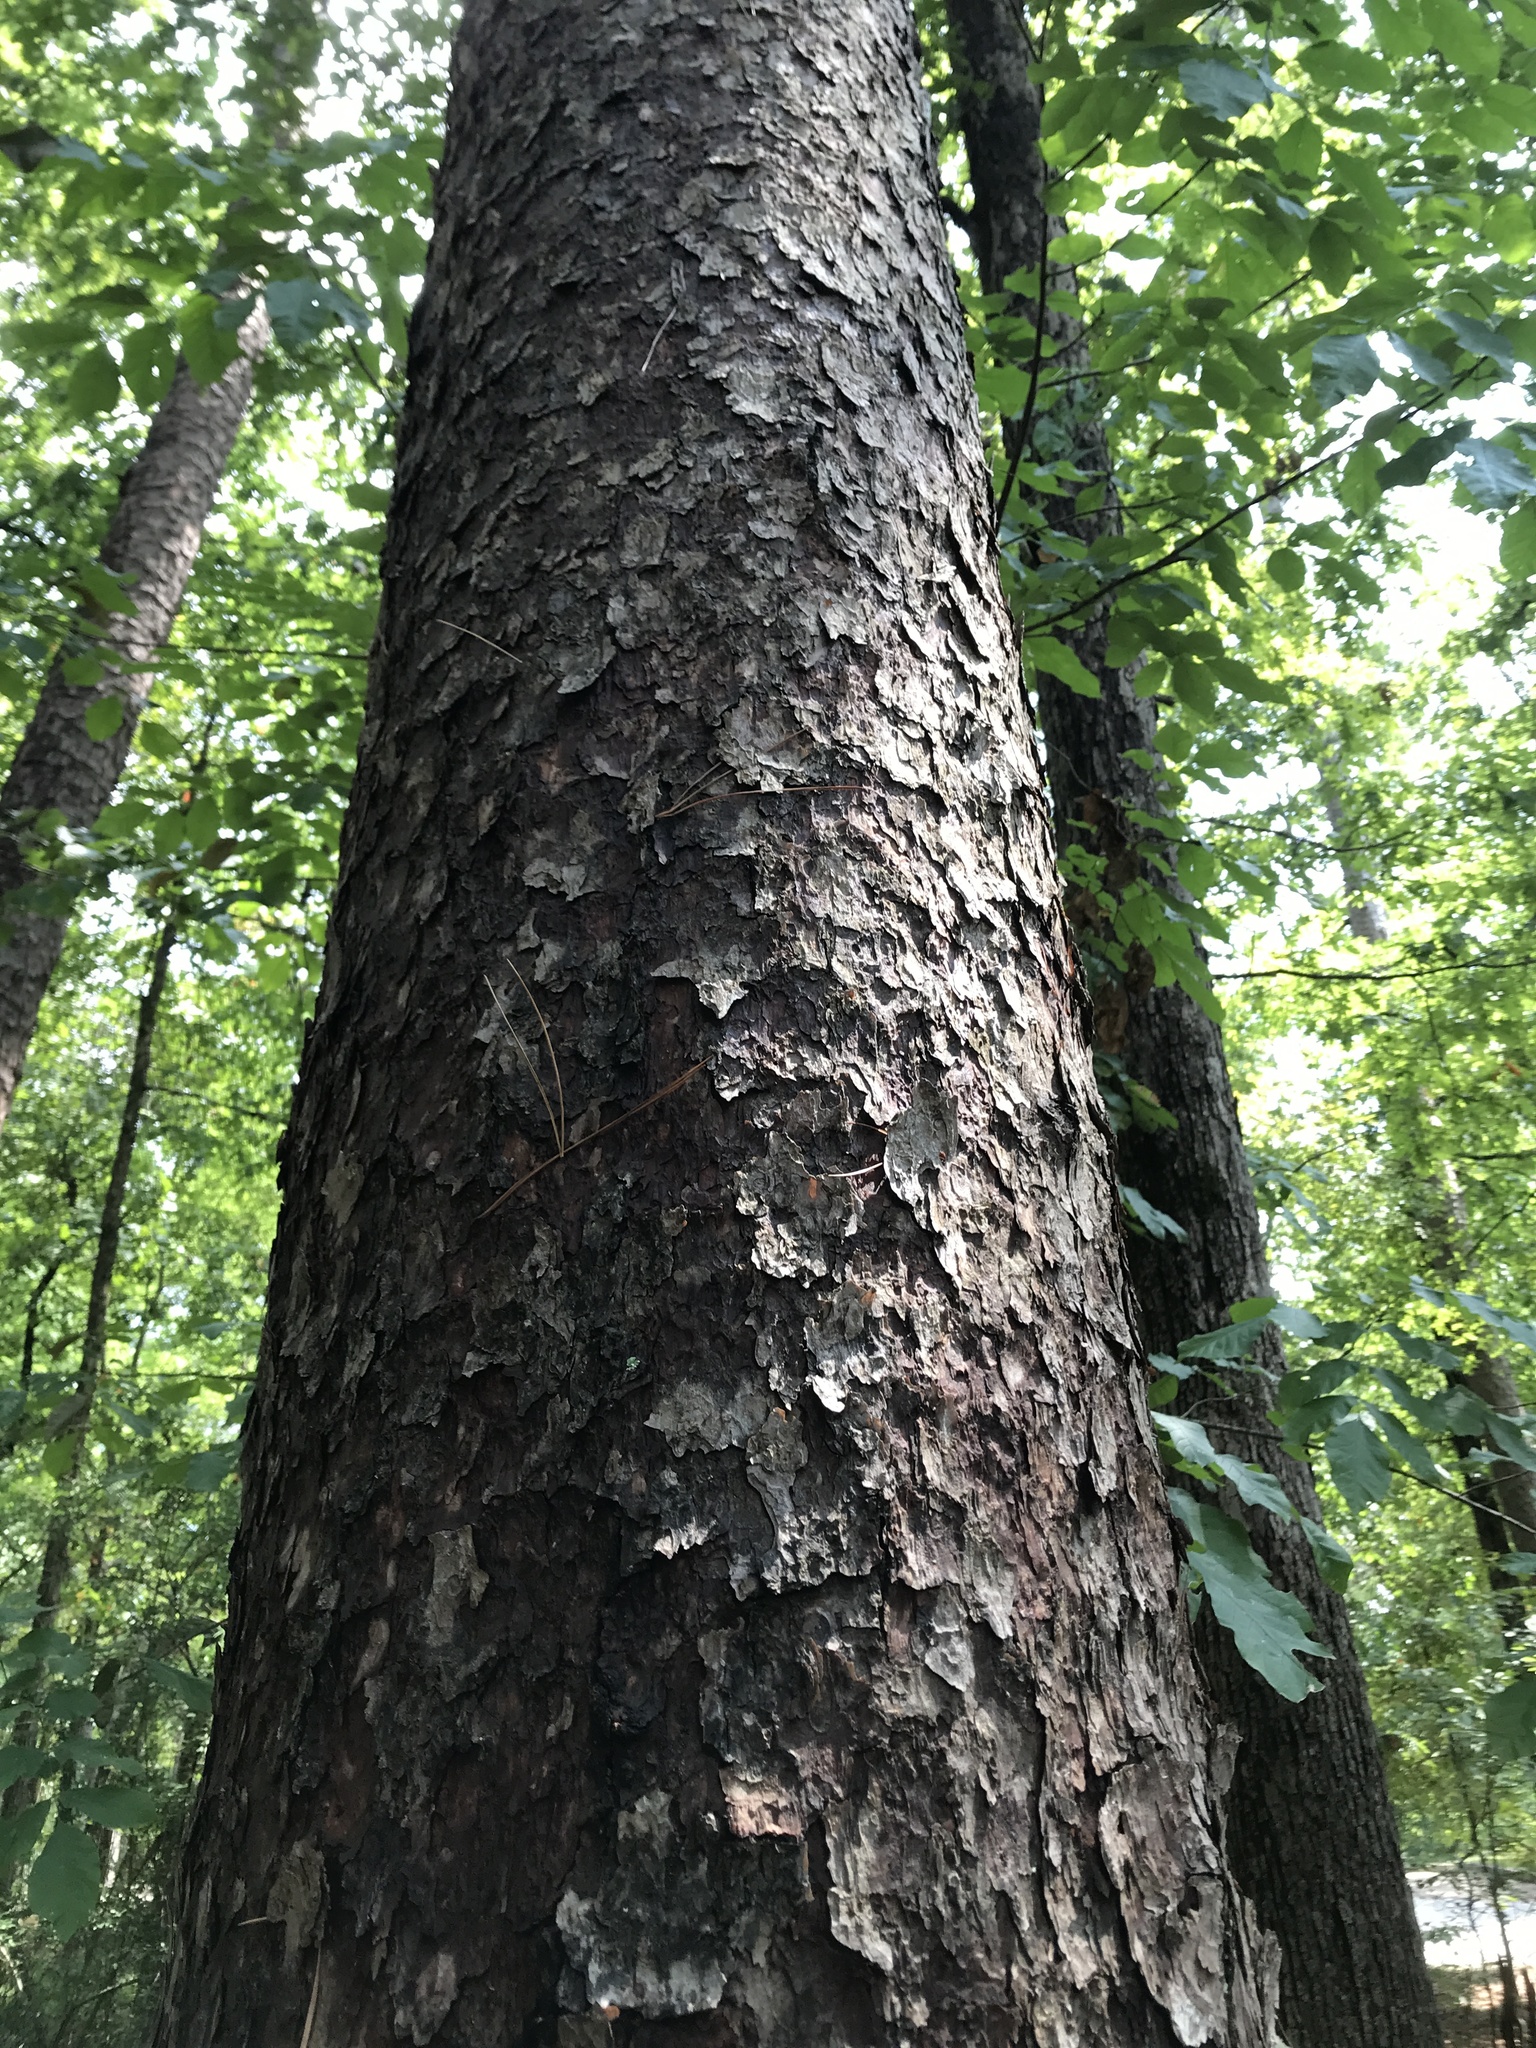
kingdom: Plantae
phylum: Tracheophyta
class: Pinopsida
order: Pinales
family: Pinaceae
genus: Pinus
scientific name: Pinus echinata
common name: Shortleaf pine
